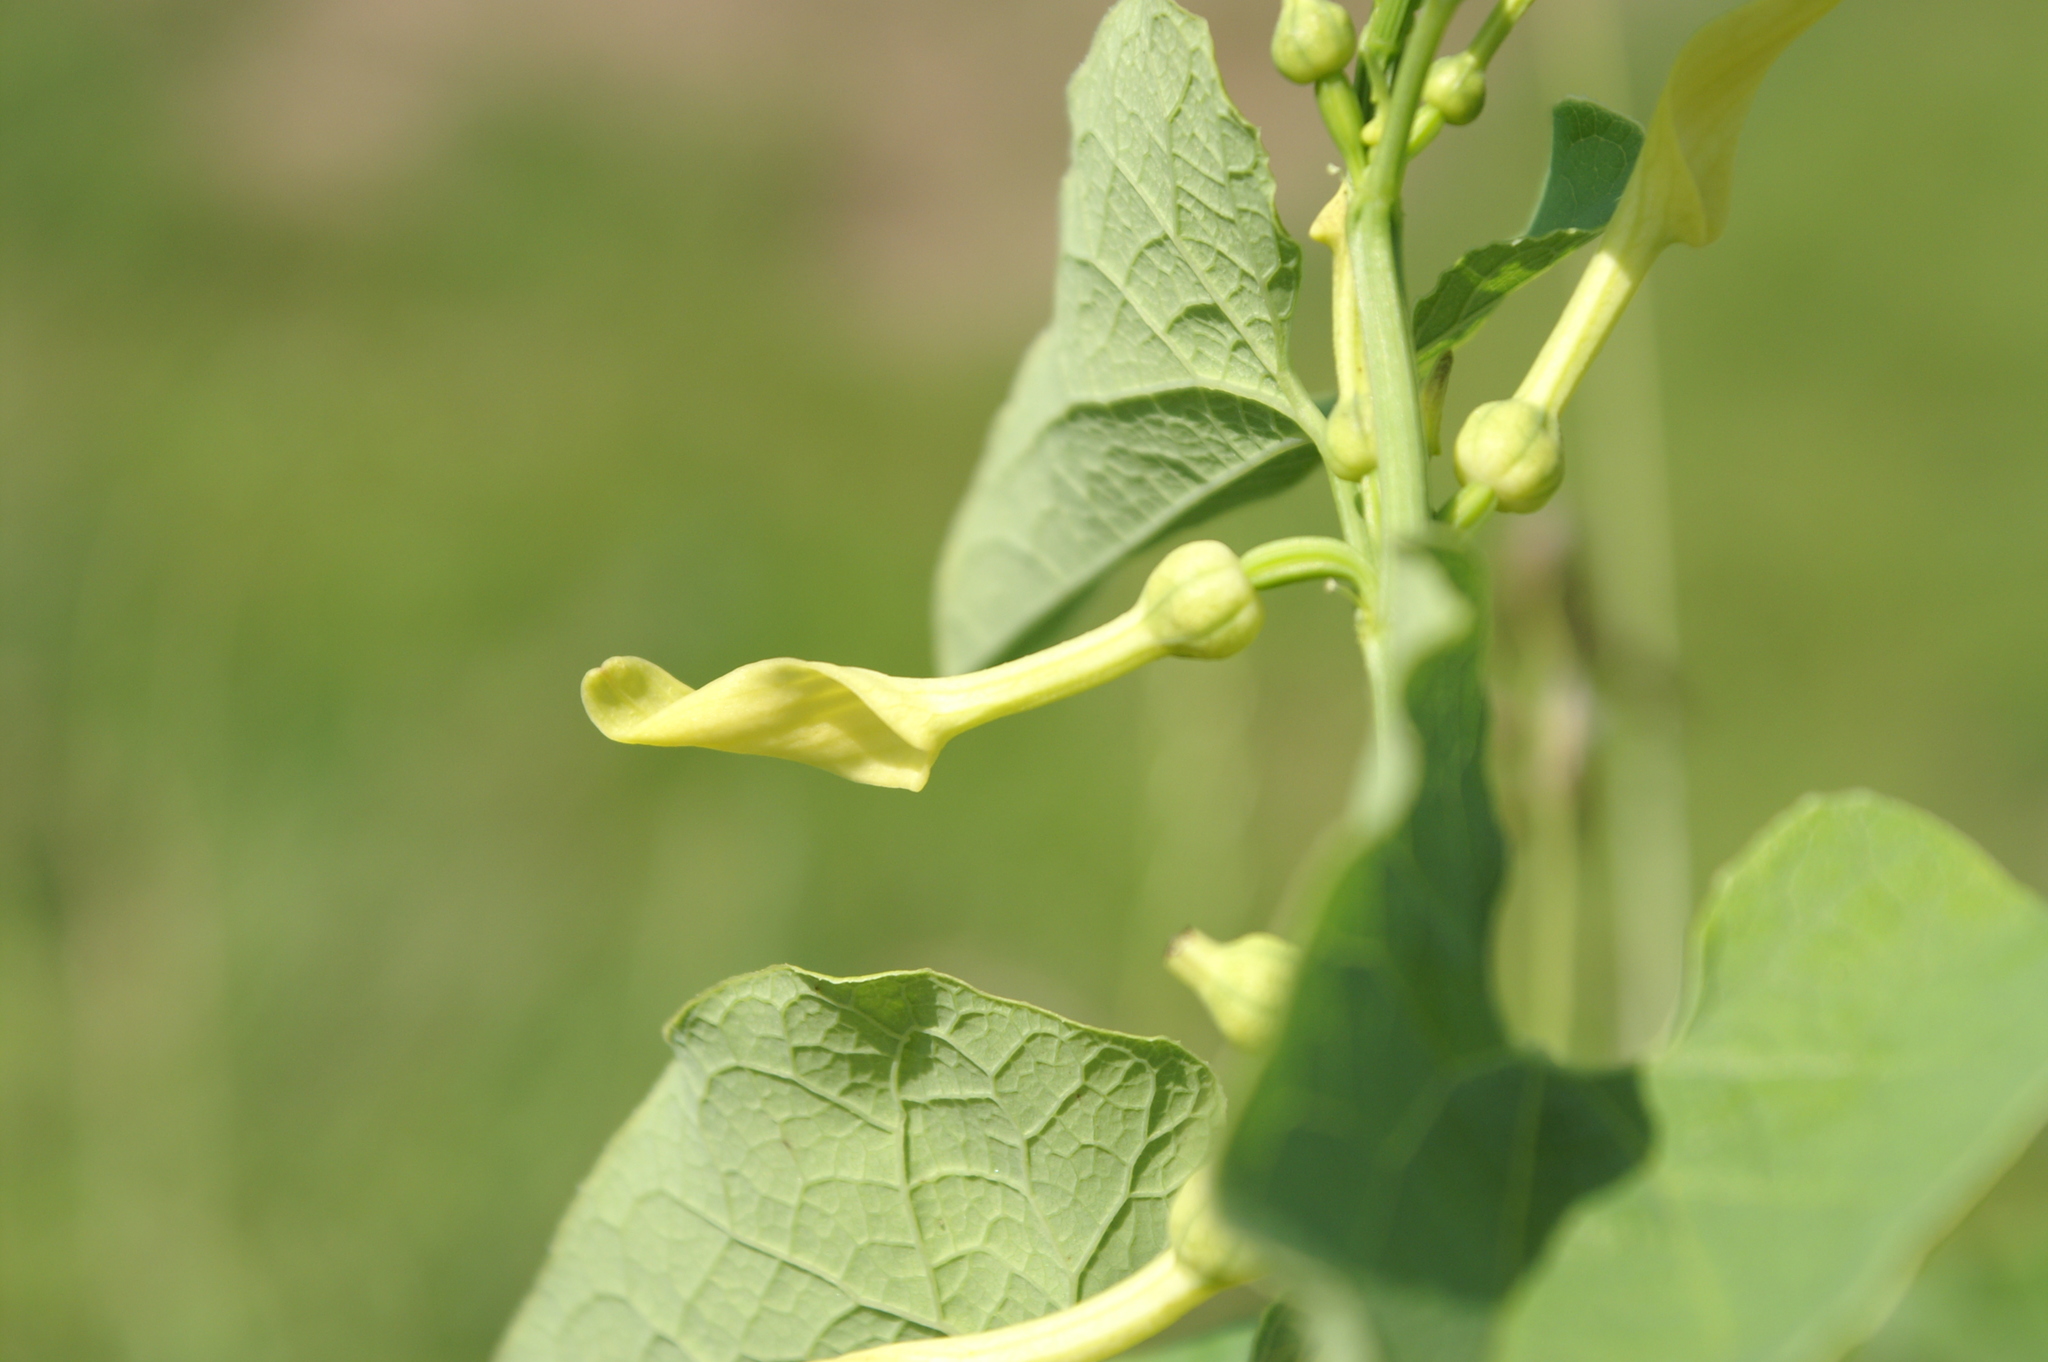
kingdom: Plantae
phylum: Tracheophyta
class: Magnoliopsida
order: Piperales
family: Aristolochiaceae
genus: Aristolochia
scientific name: Aristolochia clematitis
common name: Birthwort
